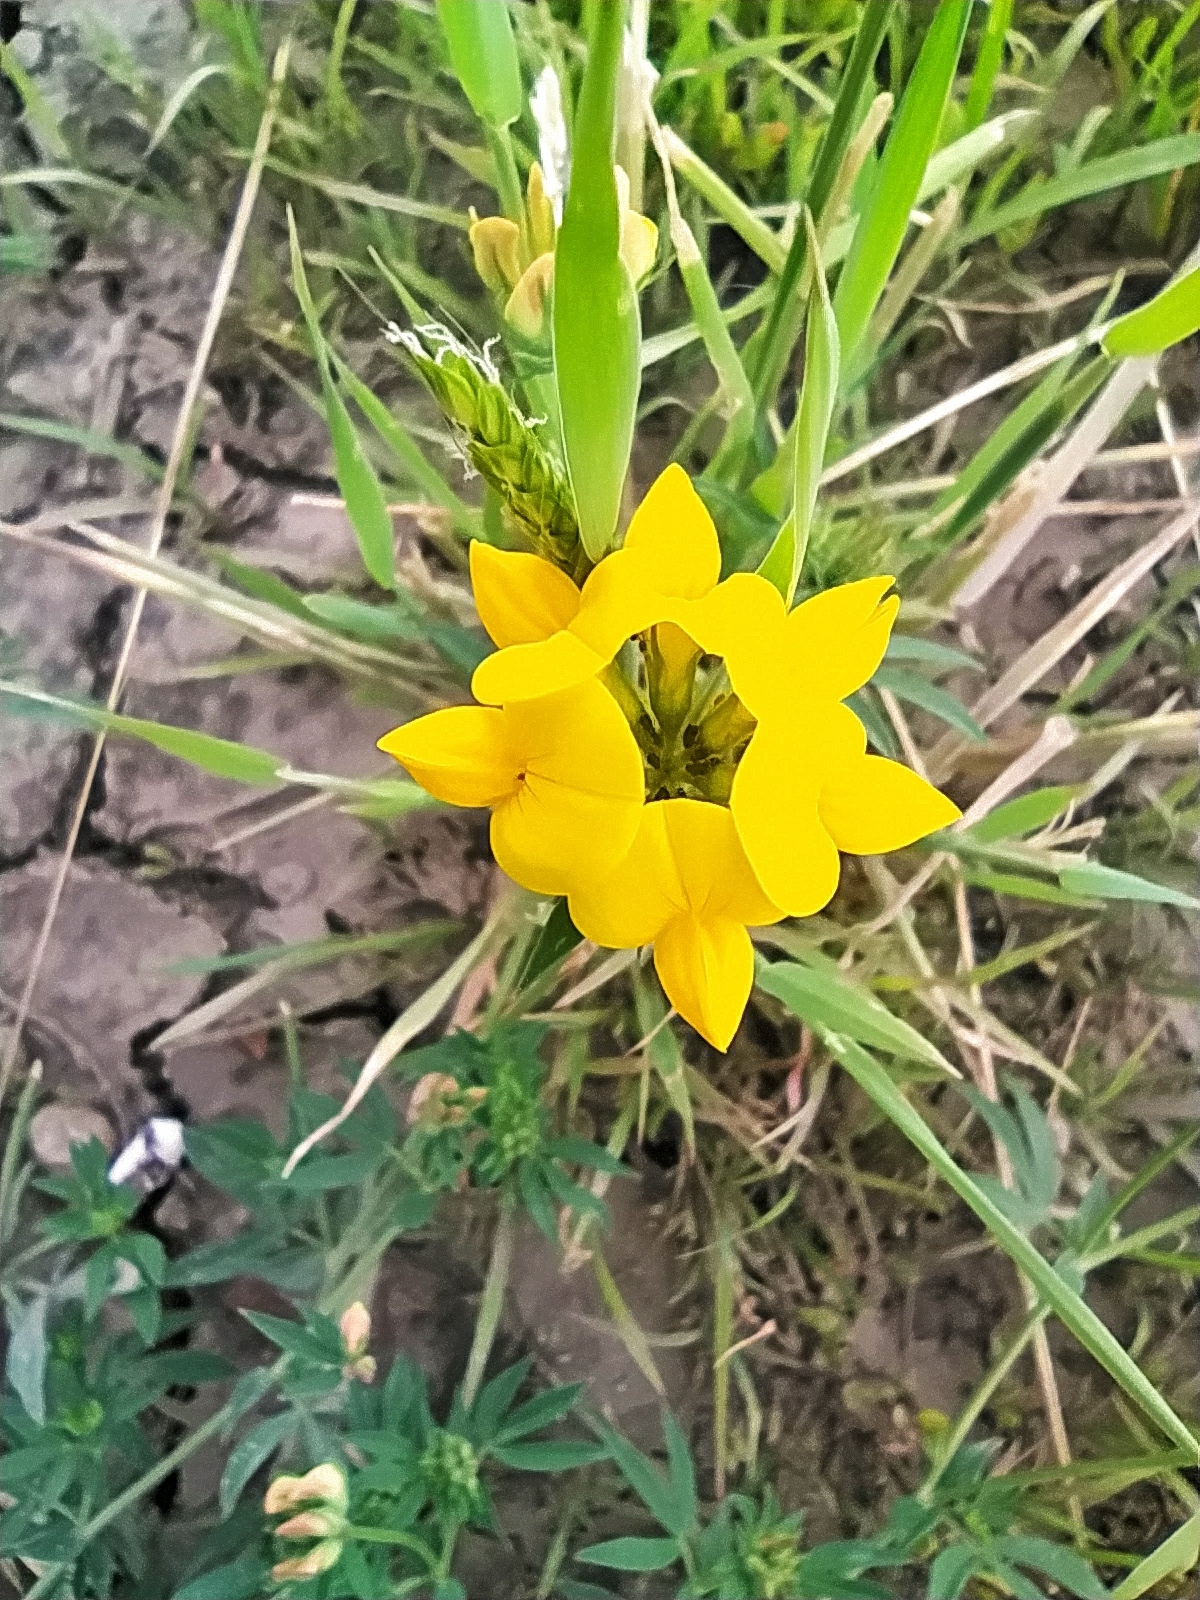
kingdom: Plantae
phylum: Tracheophyta
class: Magnoliopsida
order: Fabales
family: Fabaceae
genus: Lotus
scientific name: Lotus corniculatus
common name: Common bird's-foot-trefoil
